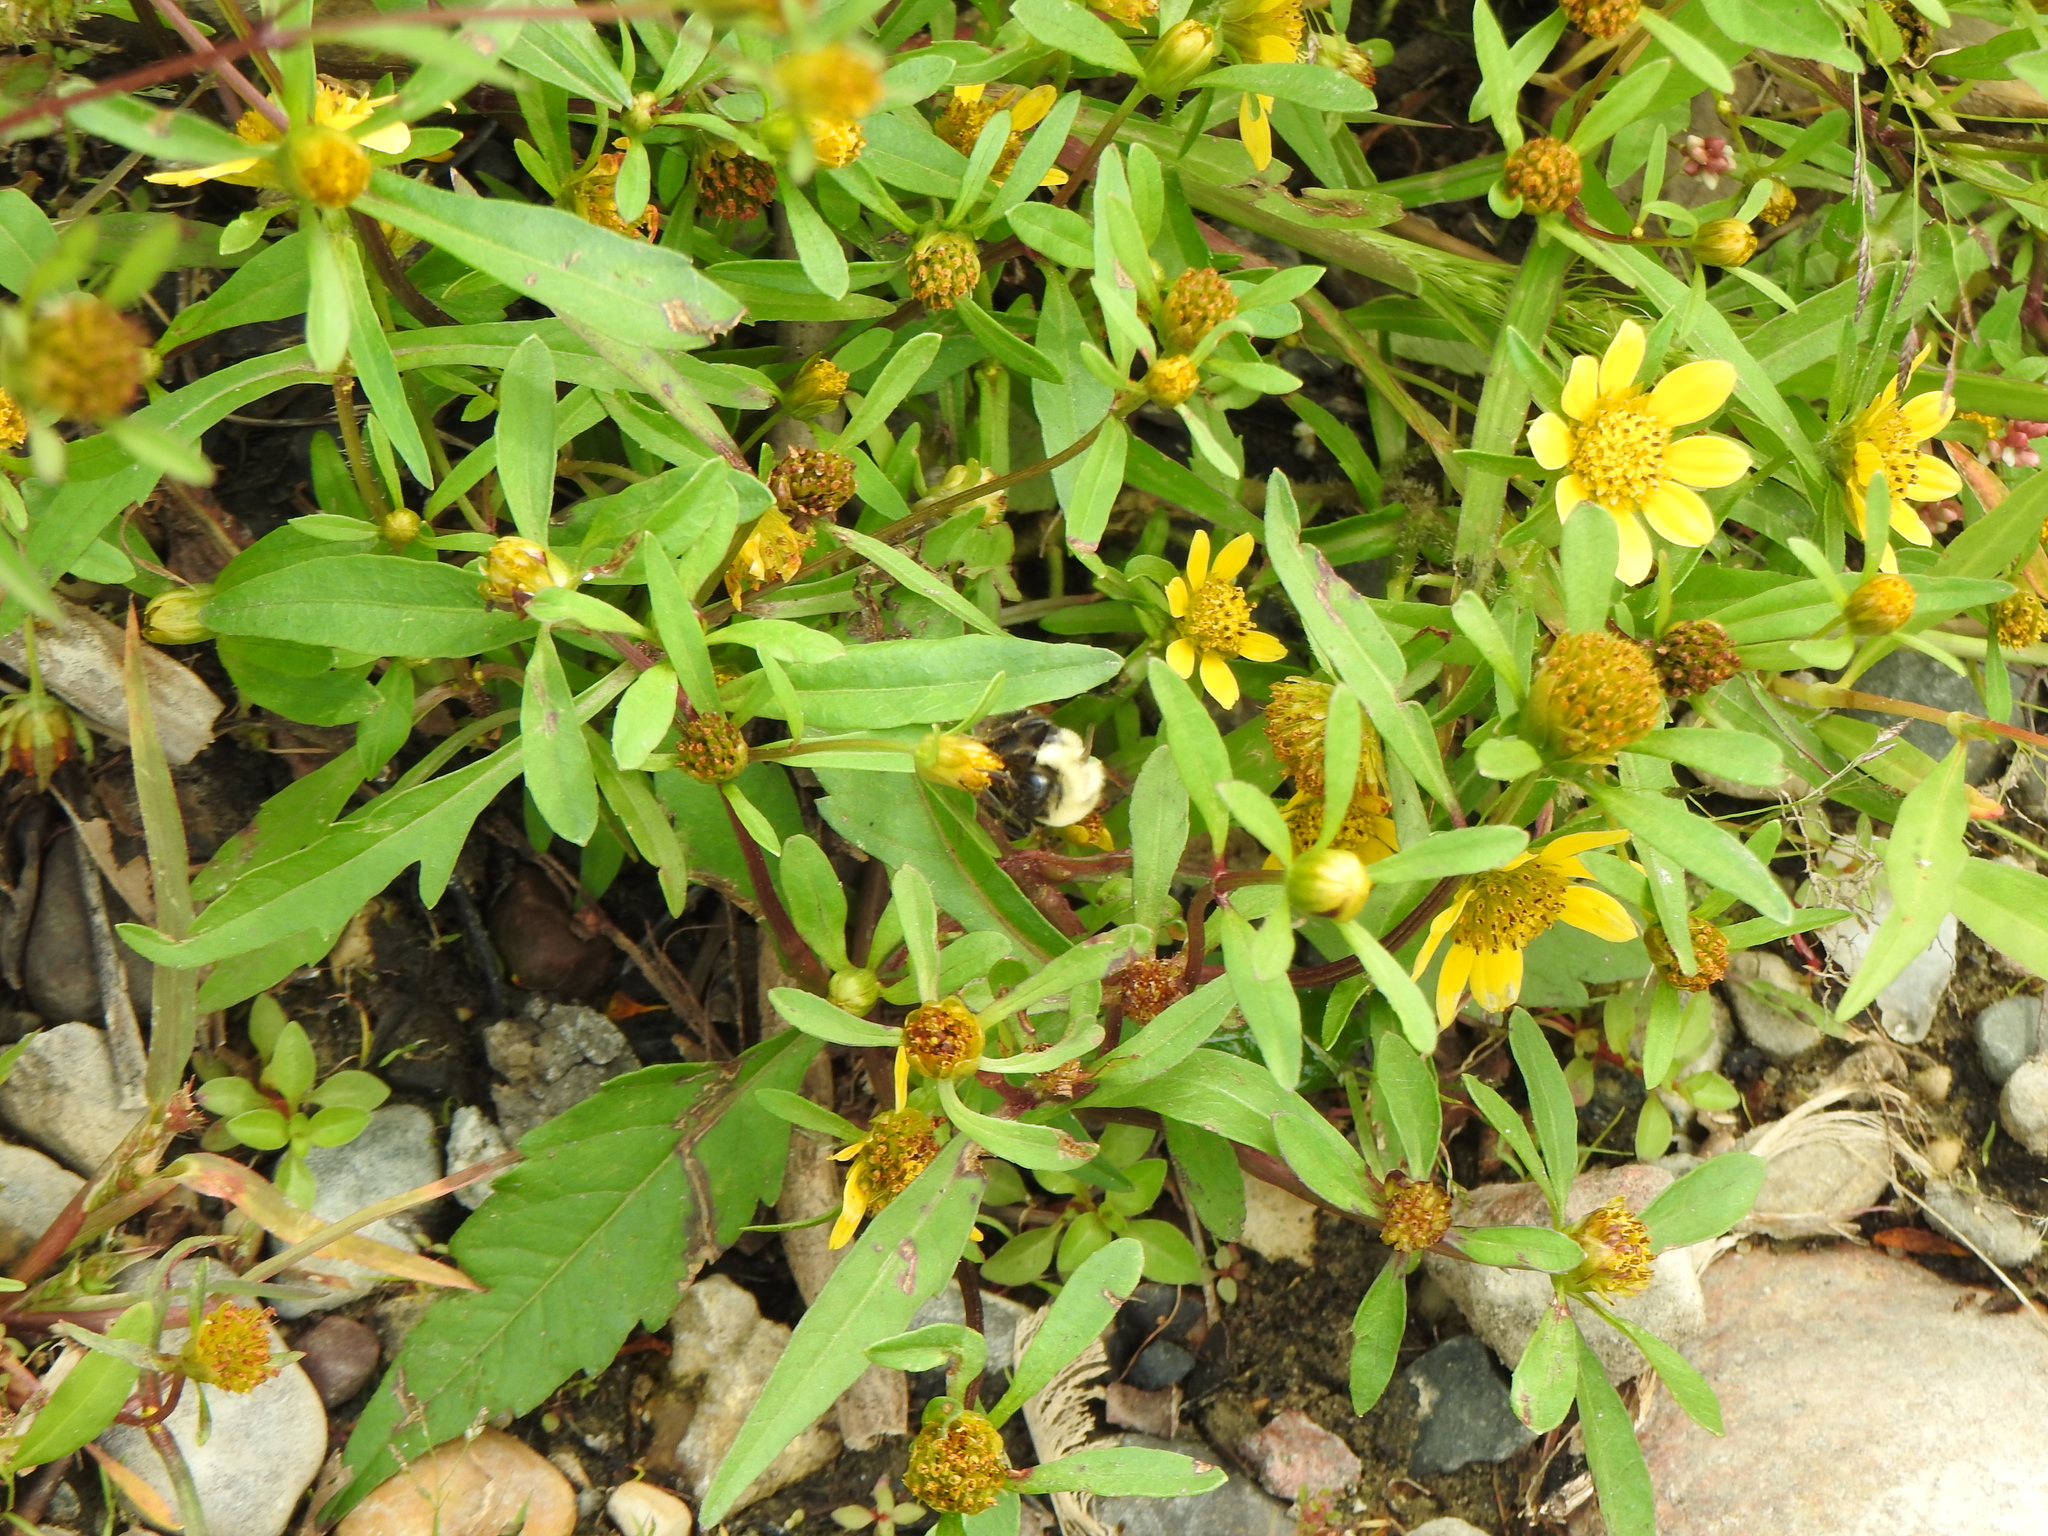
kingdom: Plantae
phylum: Tracheophyta
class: Magnoliopsida
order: Asterales
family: Asteraceae
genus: Bidens
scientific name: Bidens cernua
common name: Nodding bur-marigold
